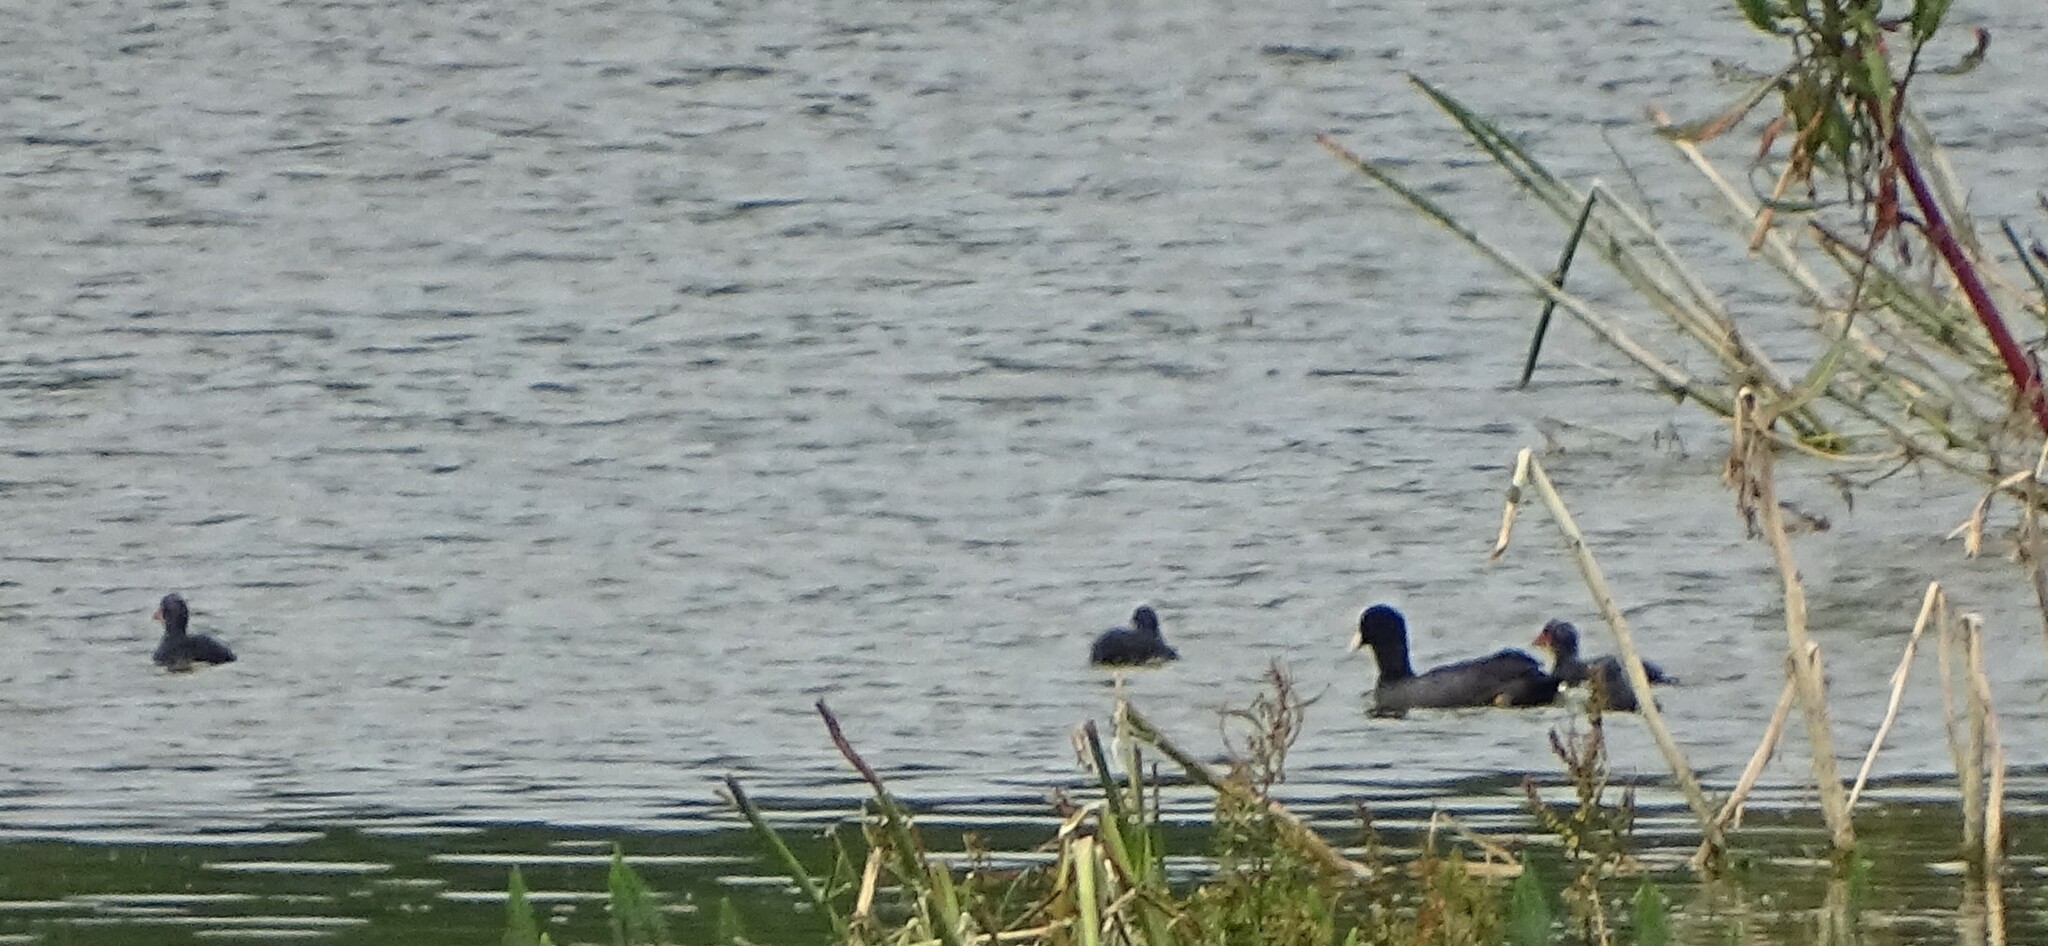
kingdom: Animalia
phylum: Chordata
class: Aves
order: Gruiformes
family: Rallidae
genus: Fulica
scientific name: Fulica atra
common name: Eurasian coot
